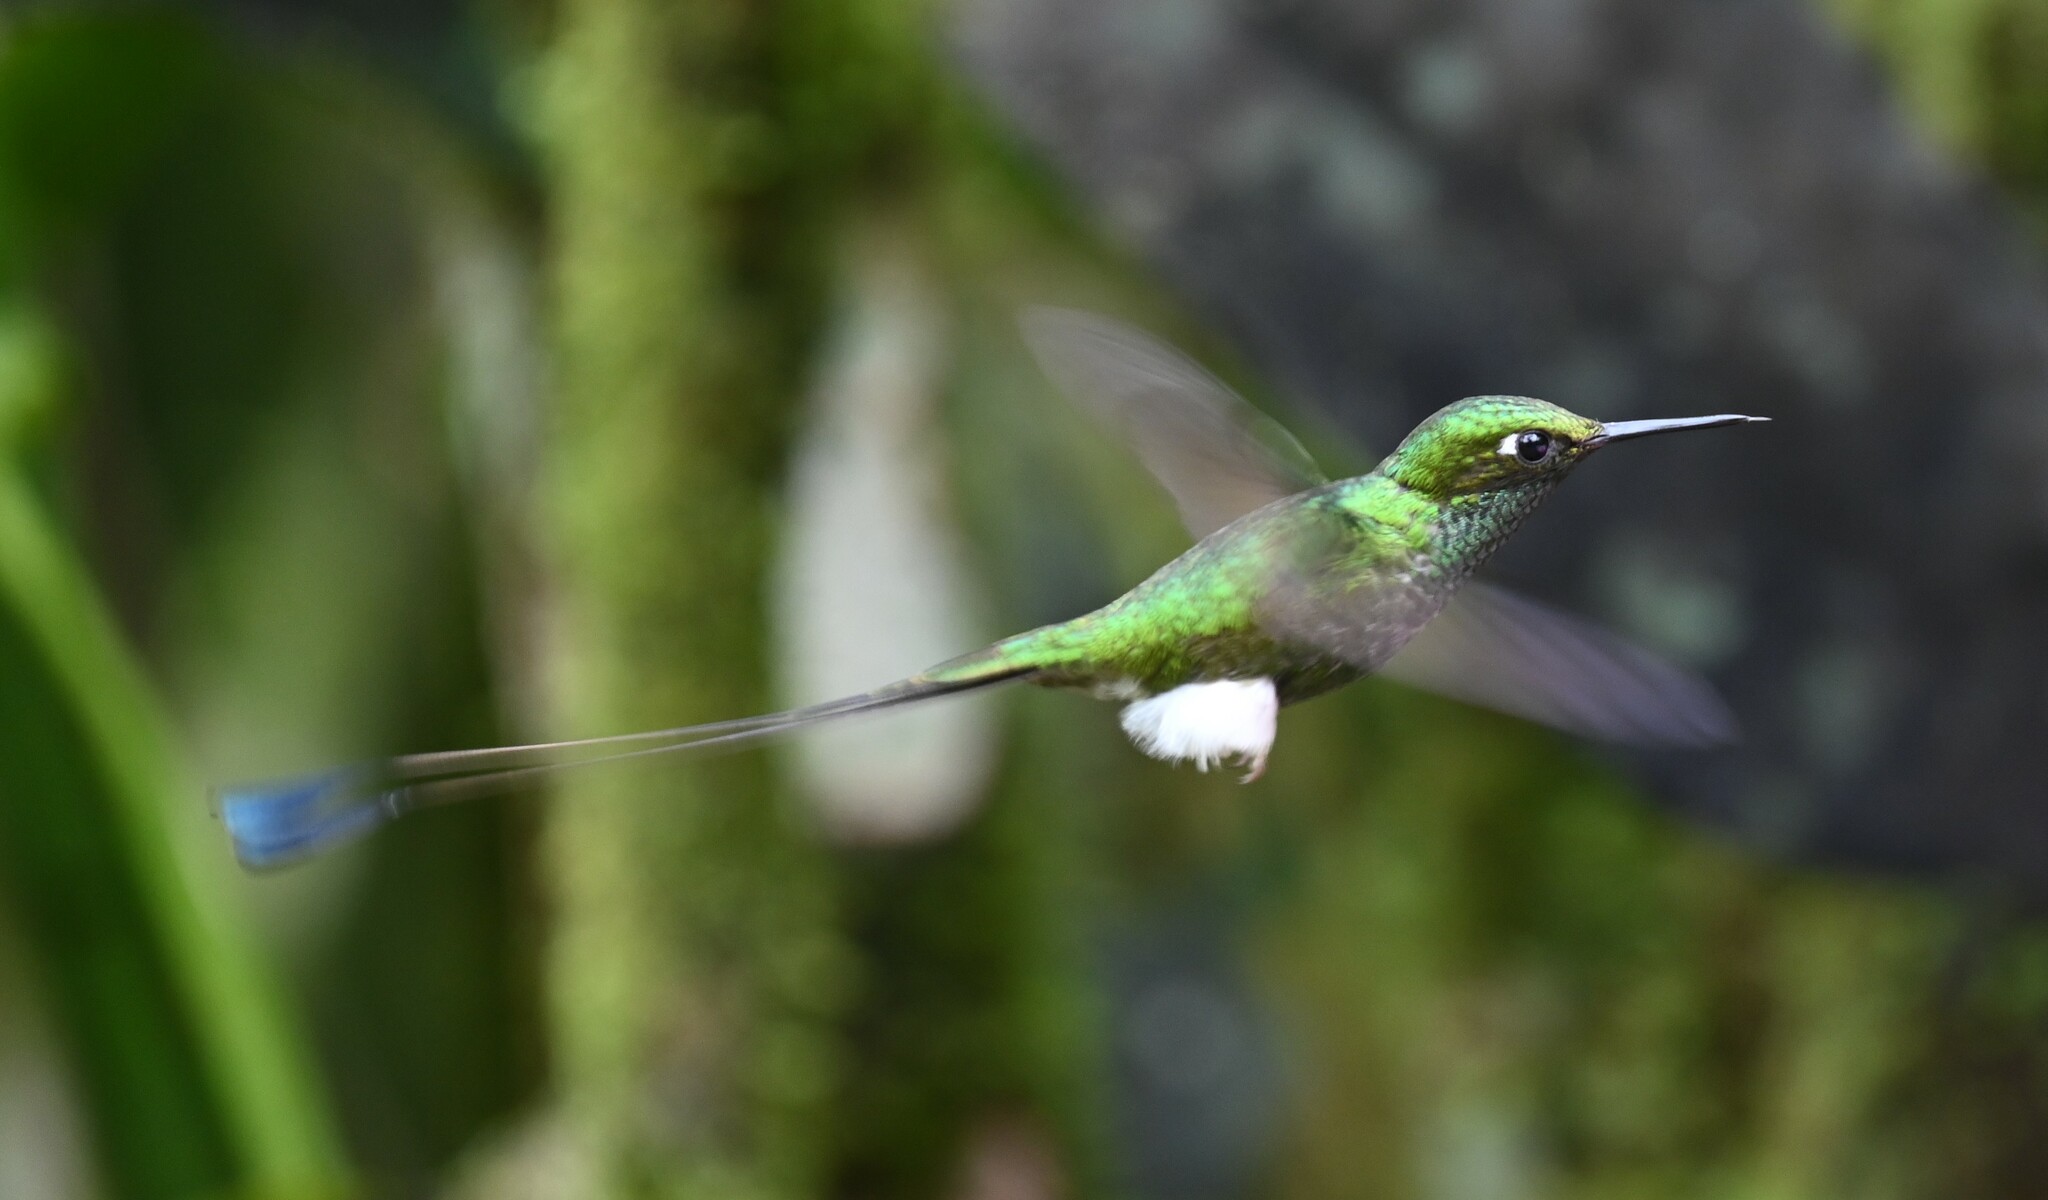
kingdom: Animalia
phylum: Chordata
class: Aves
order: Apodiformes
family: Trochilidae
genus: Ocreatus
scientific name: Ocreatus underwoodii
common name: Booted racket-tail
